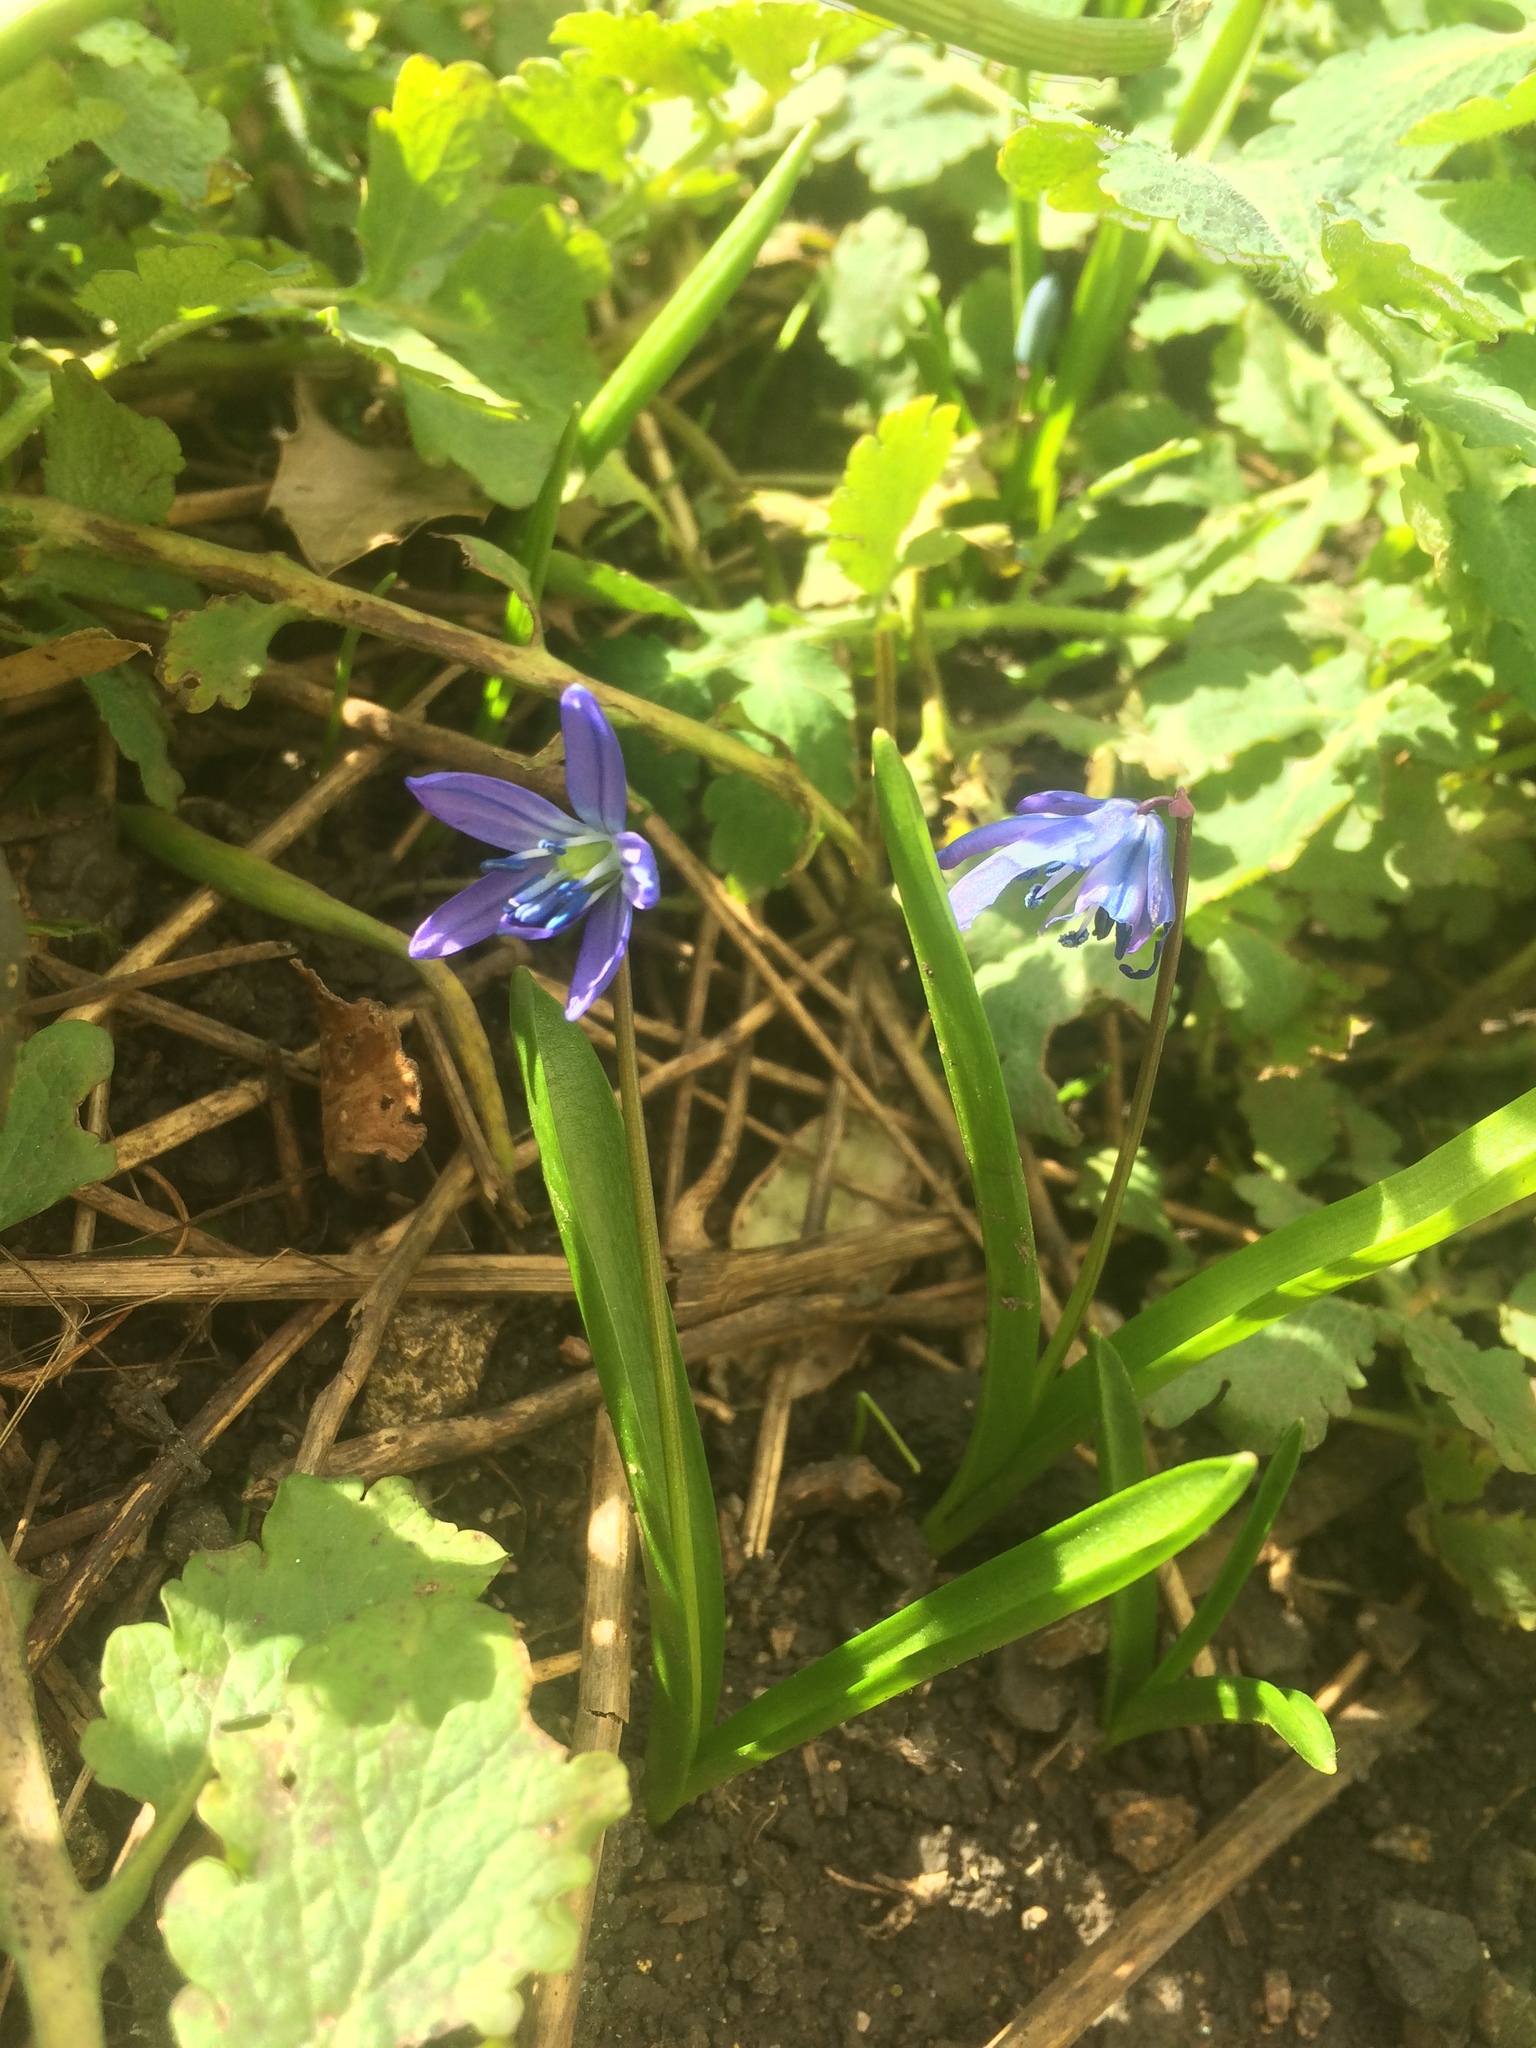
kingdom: Plantae
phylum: Tracheophyta
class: Liliopsida
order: Asparagales
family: Asparagaceae
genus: Scilla
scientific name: Scilla siberica
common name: Siberian squill
